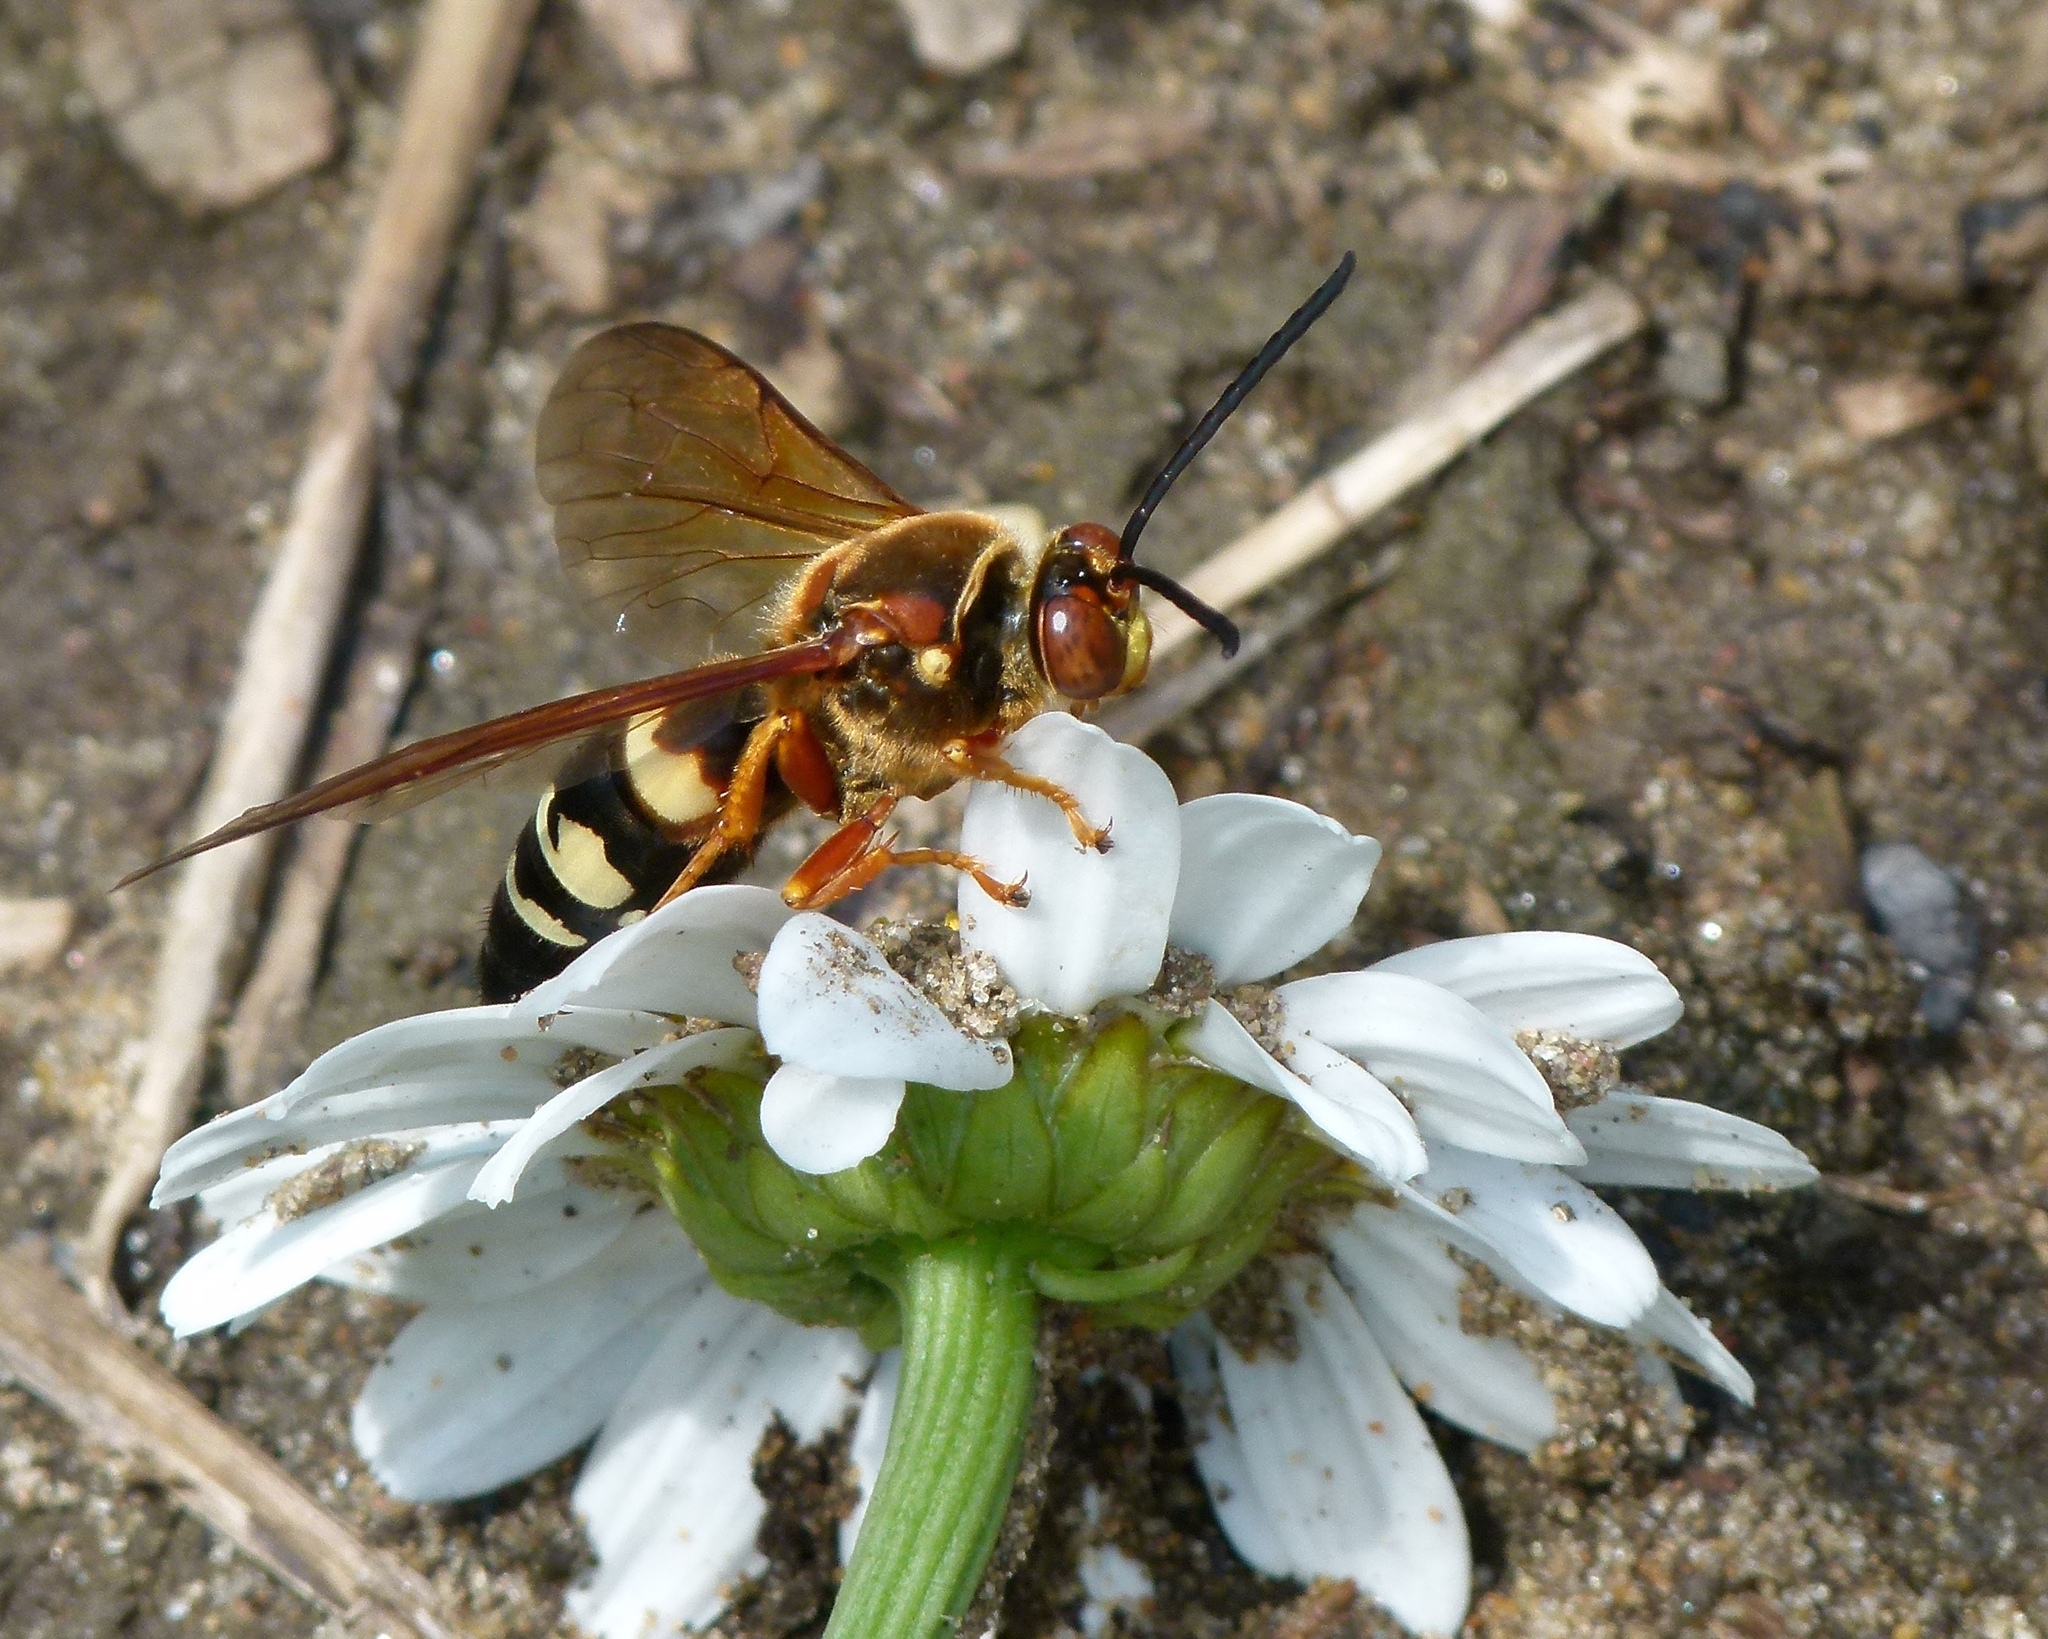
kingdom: Animalia
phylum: Arthropoda
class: Insecta
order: Hymenoptera
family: Crabronidae
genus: Sphecius
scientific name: Sphecius speciosus
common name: Cicada killer
